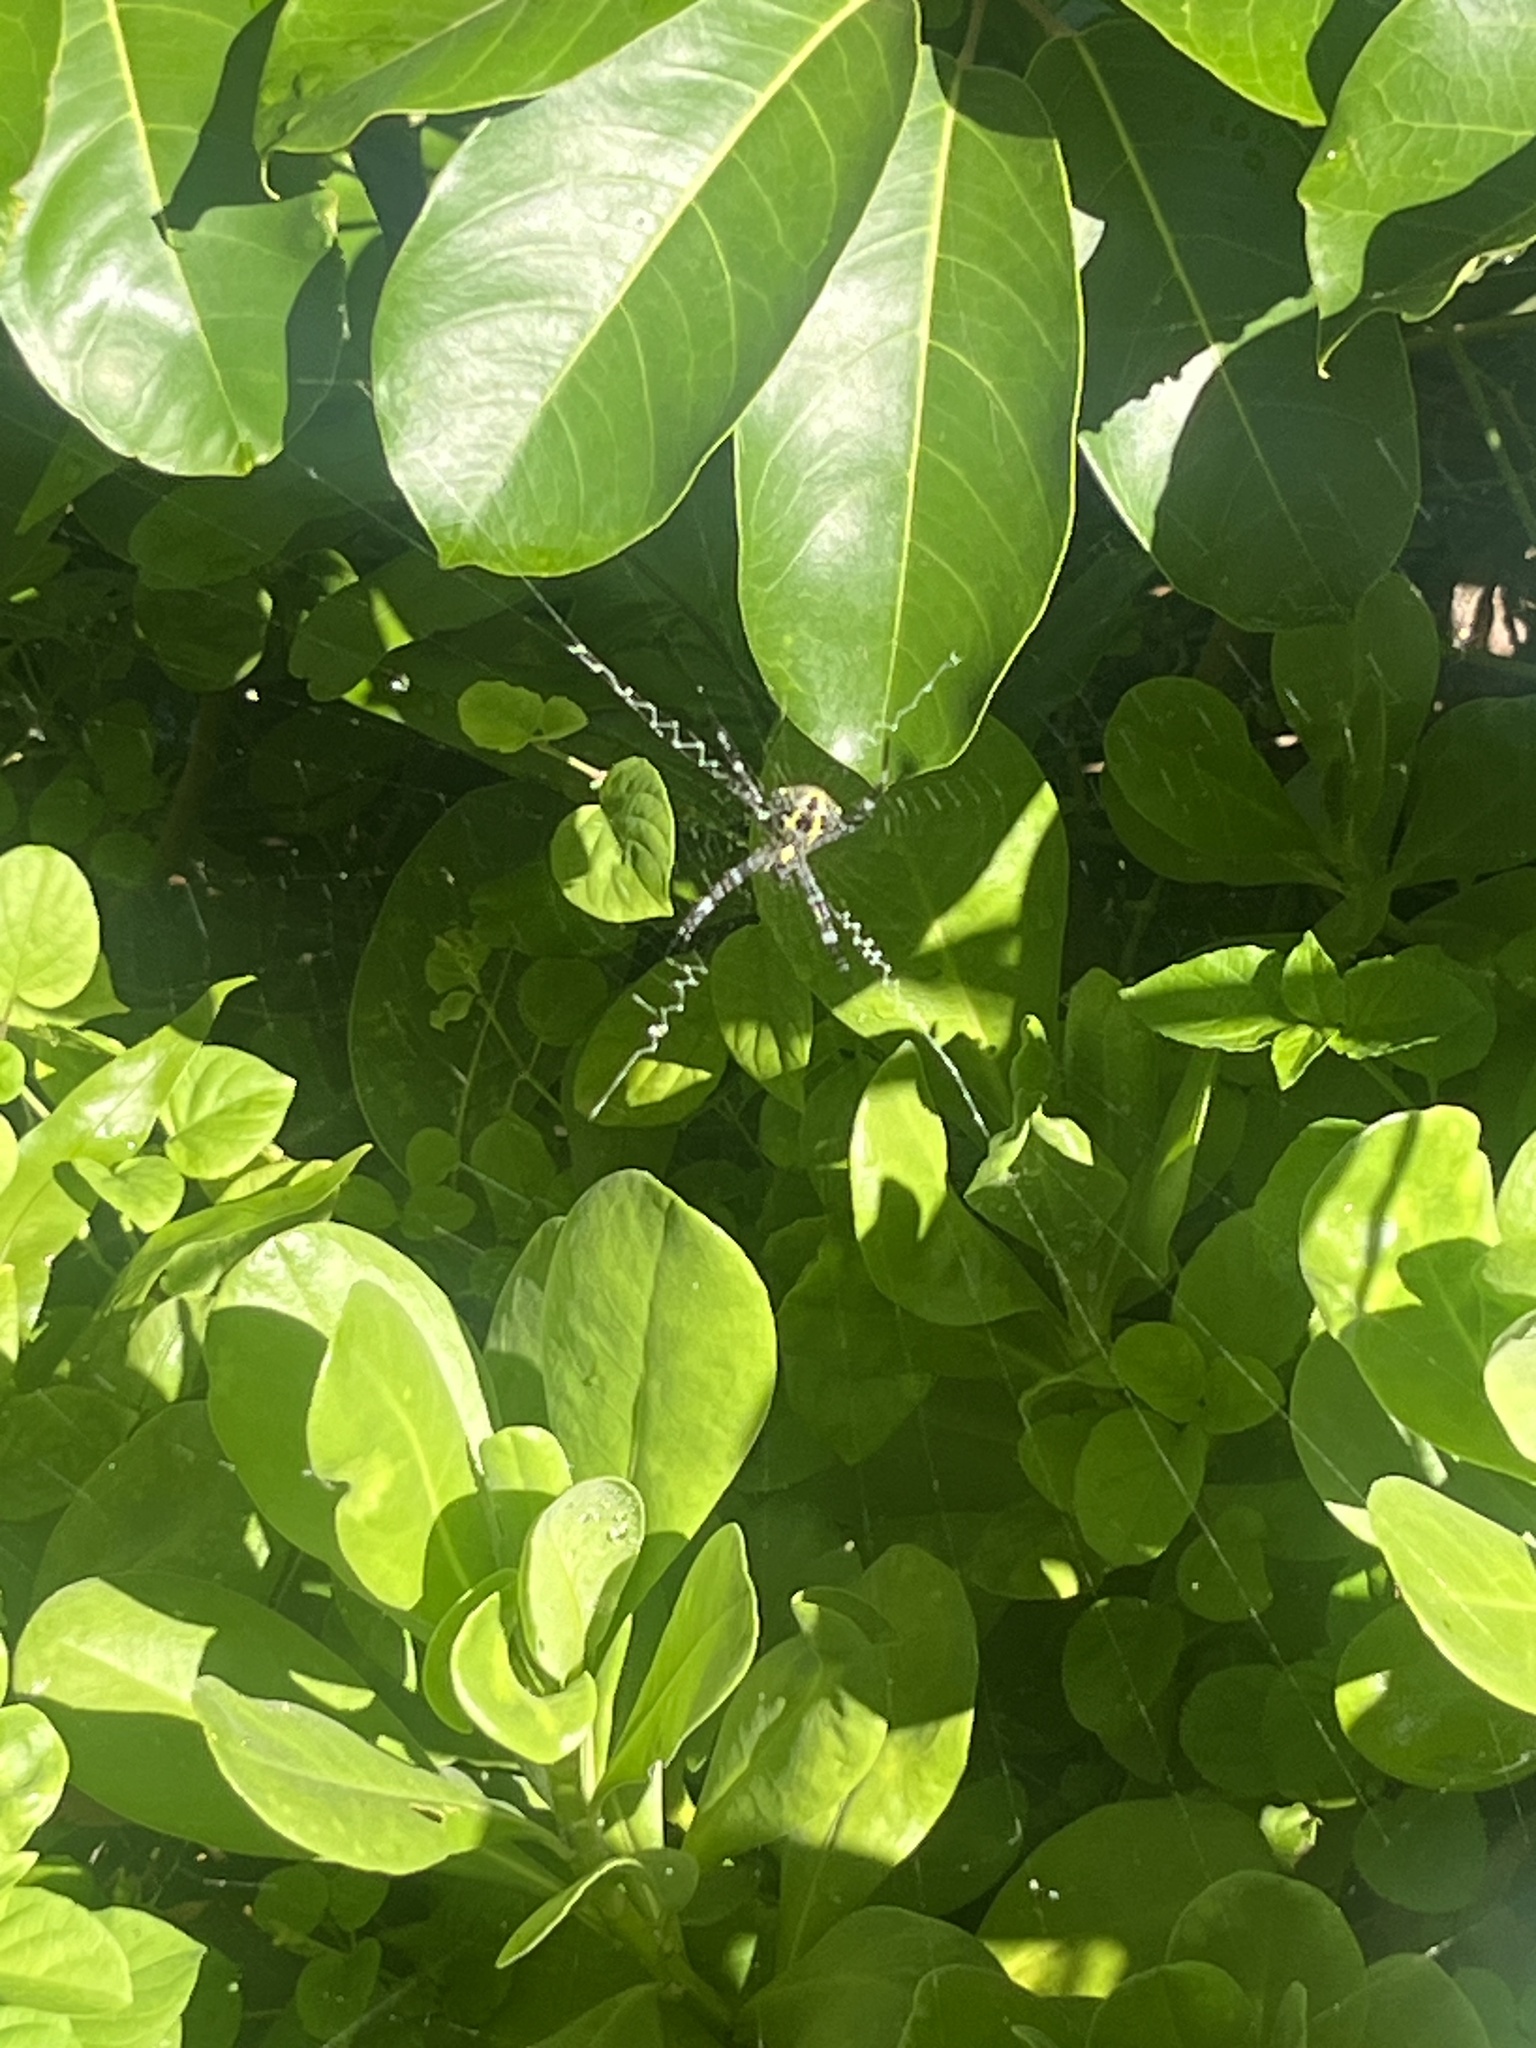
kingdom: Animalia
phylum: Arthropoda
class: Arachnida
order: Araneae
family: Araneidae
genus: Argiope
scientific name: Argiope appensa
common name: Garden spider
